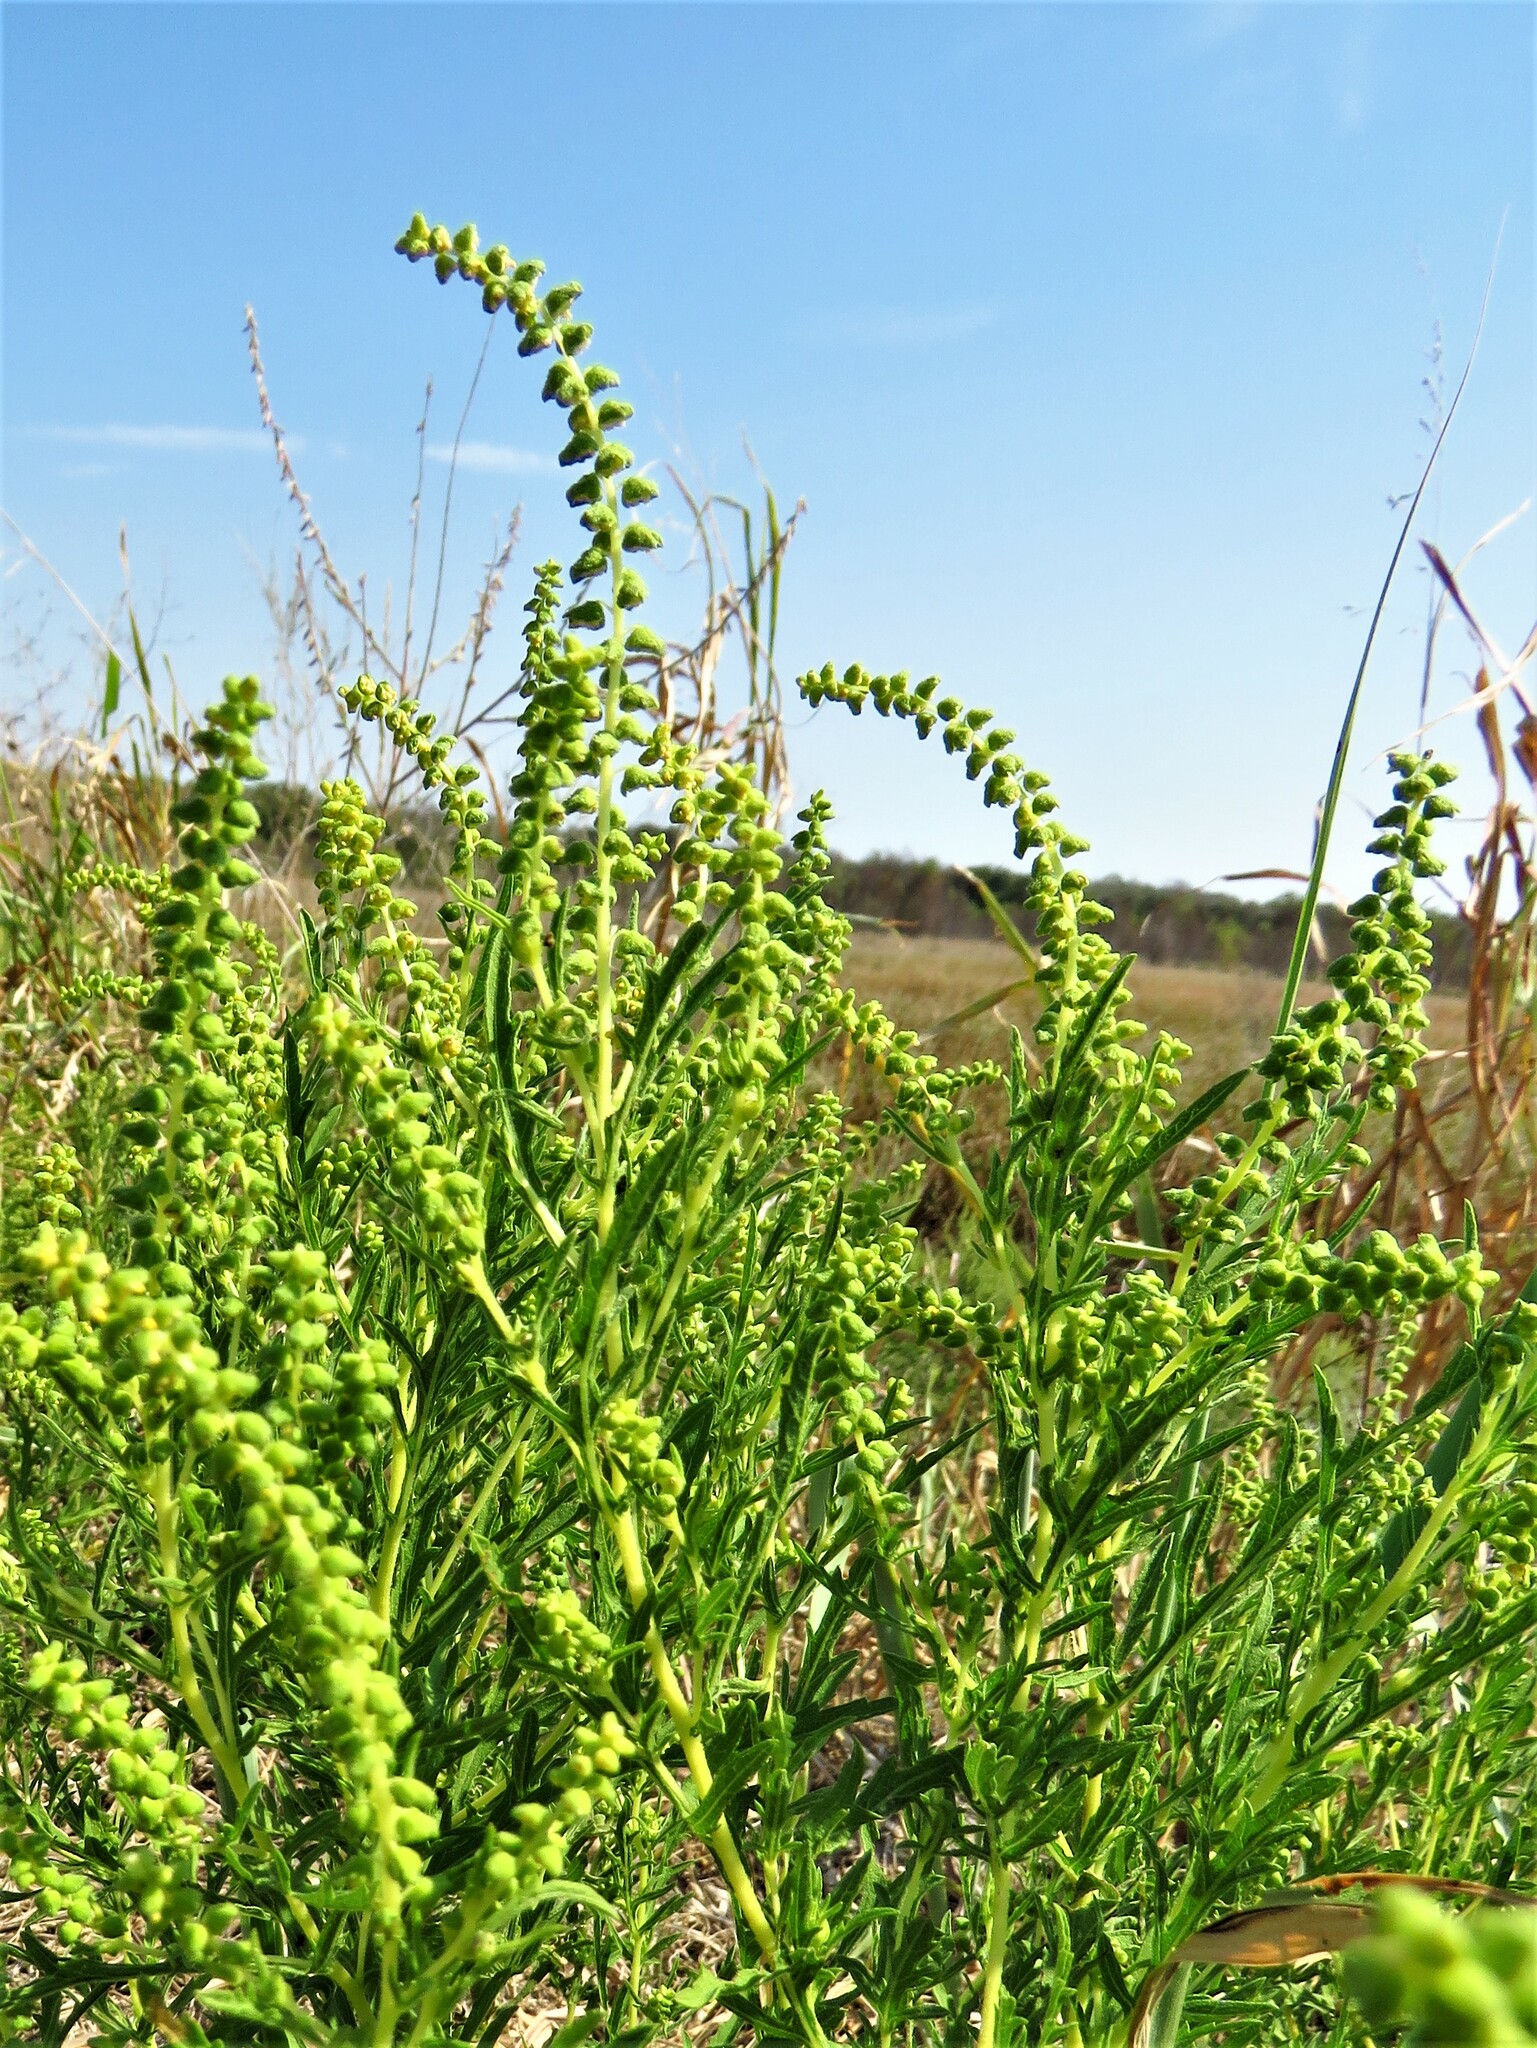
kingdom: Plantae
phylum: Tracheophyta
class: Magnoliopsida
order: Asterales
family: Asteraceae
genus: Ambrosia
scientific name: Ambrosia psilostachya
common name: Perennial ragweed
